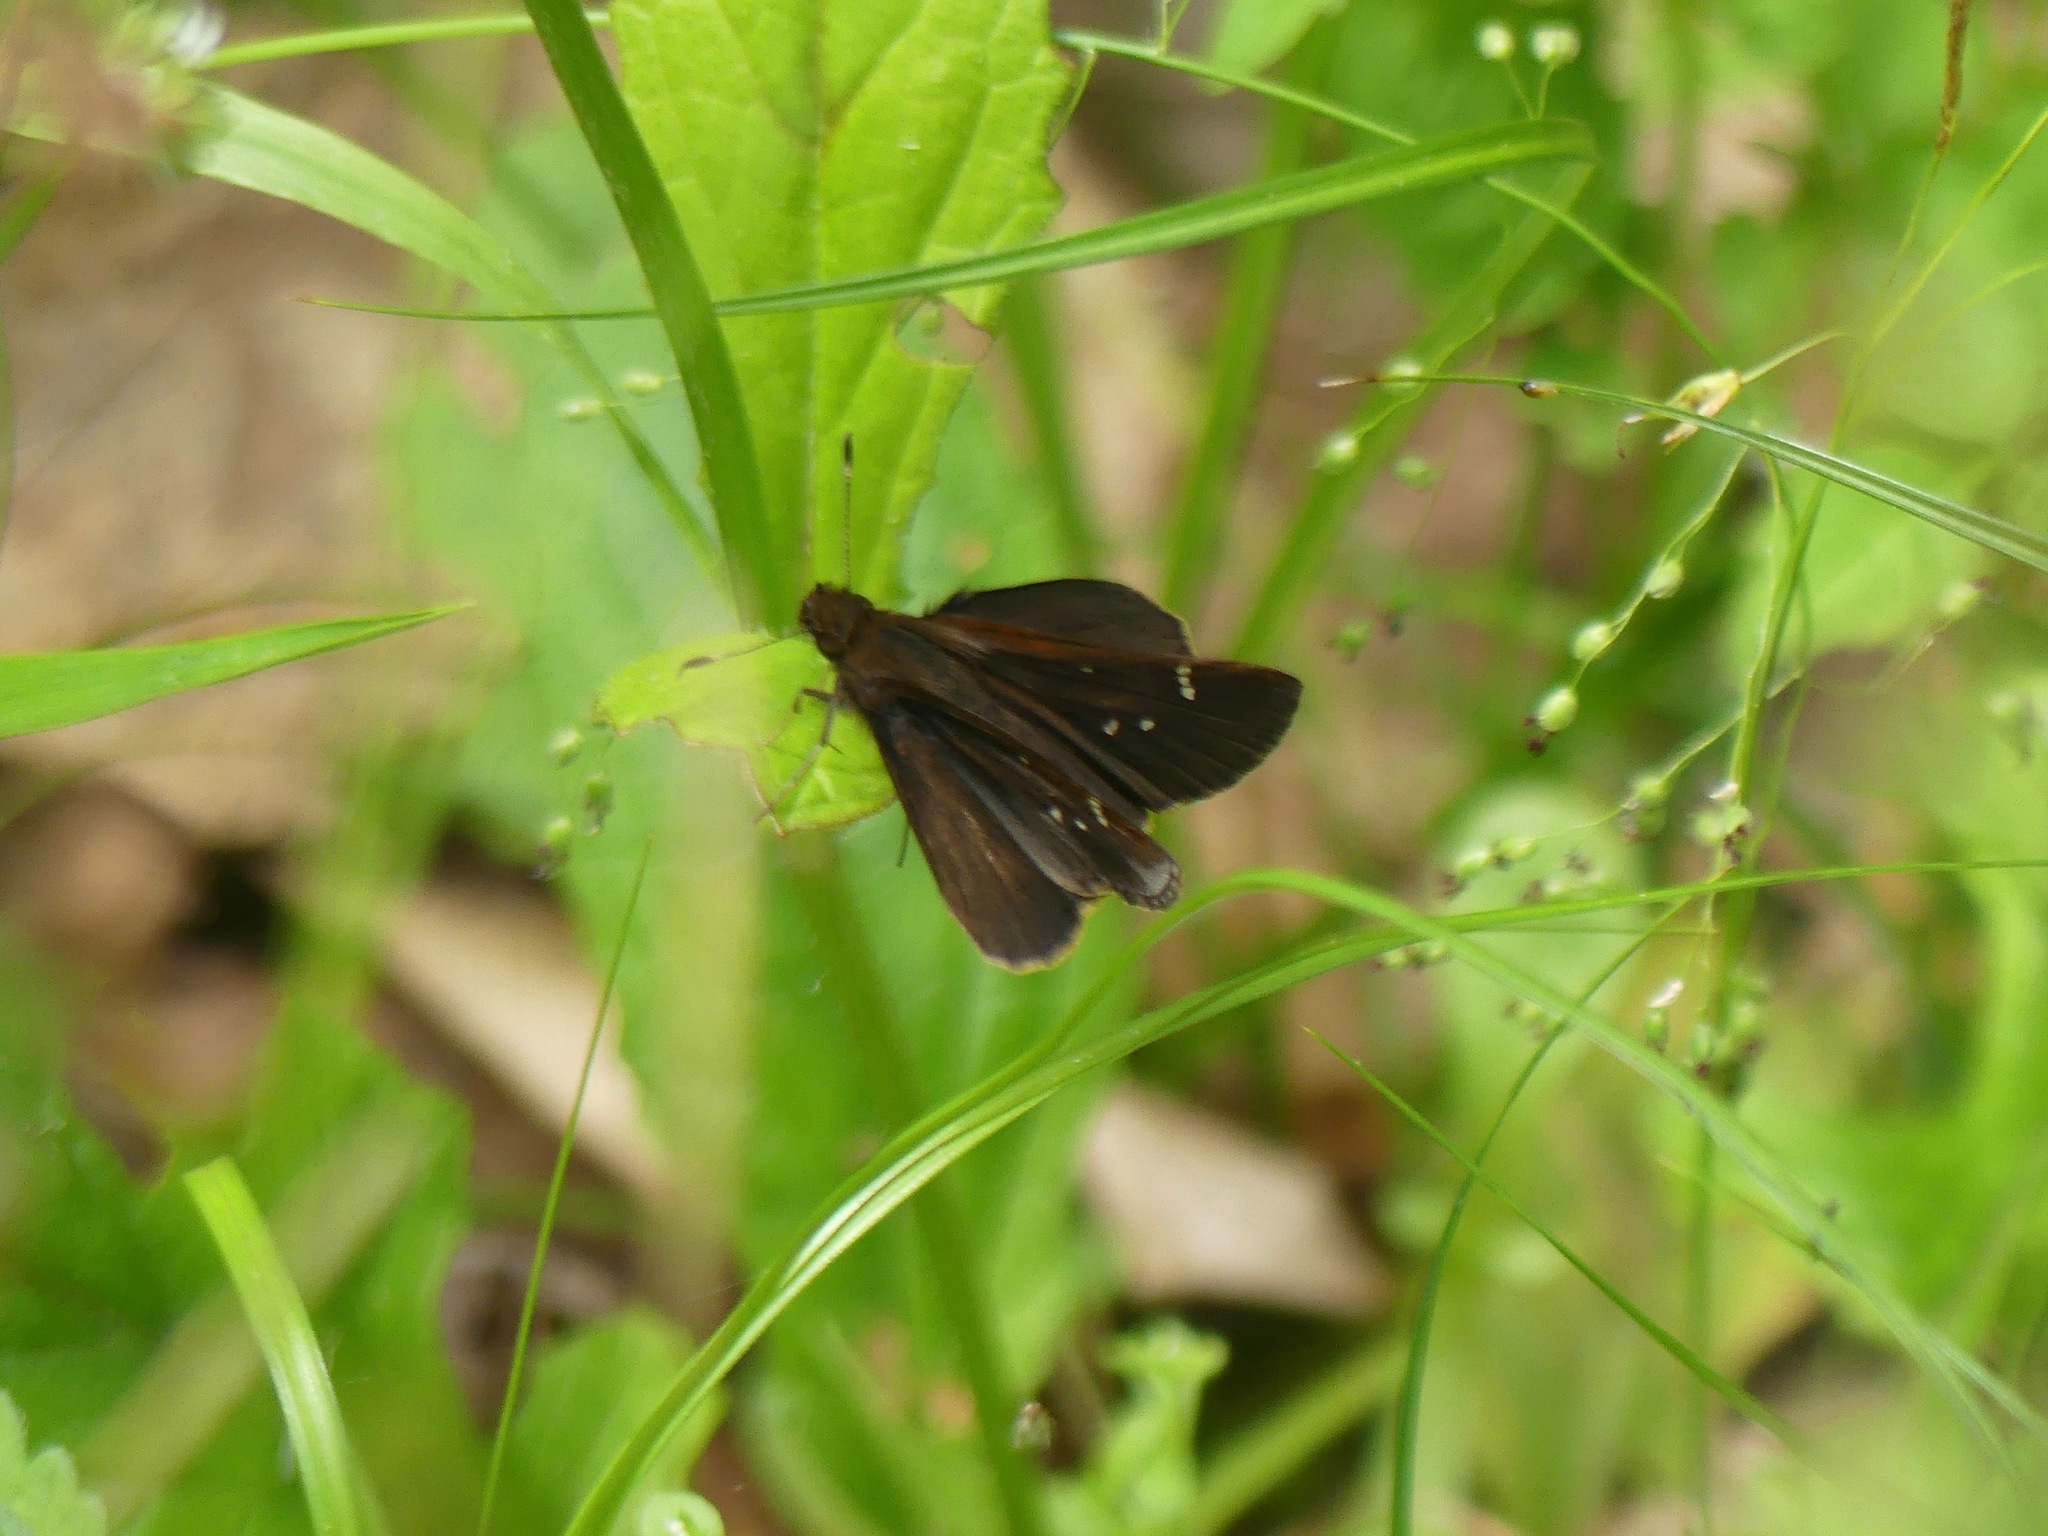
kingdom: Animalia
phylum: Arthropoda
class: Insecta
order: Lepidoptera
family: Hesperiidae
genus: Lerema
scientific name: Lerema accius
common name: Clouded skipper
